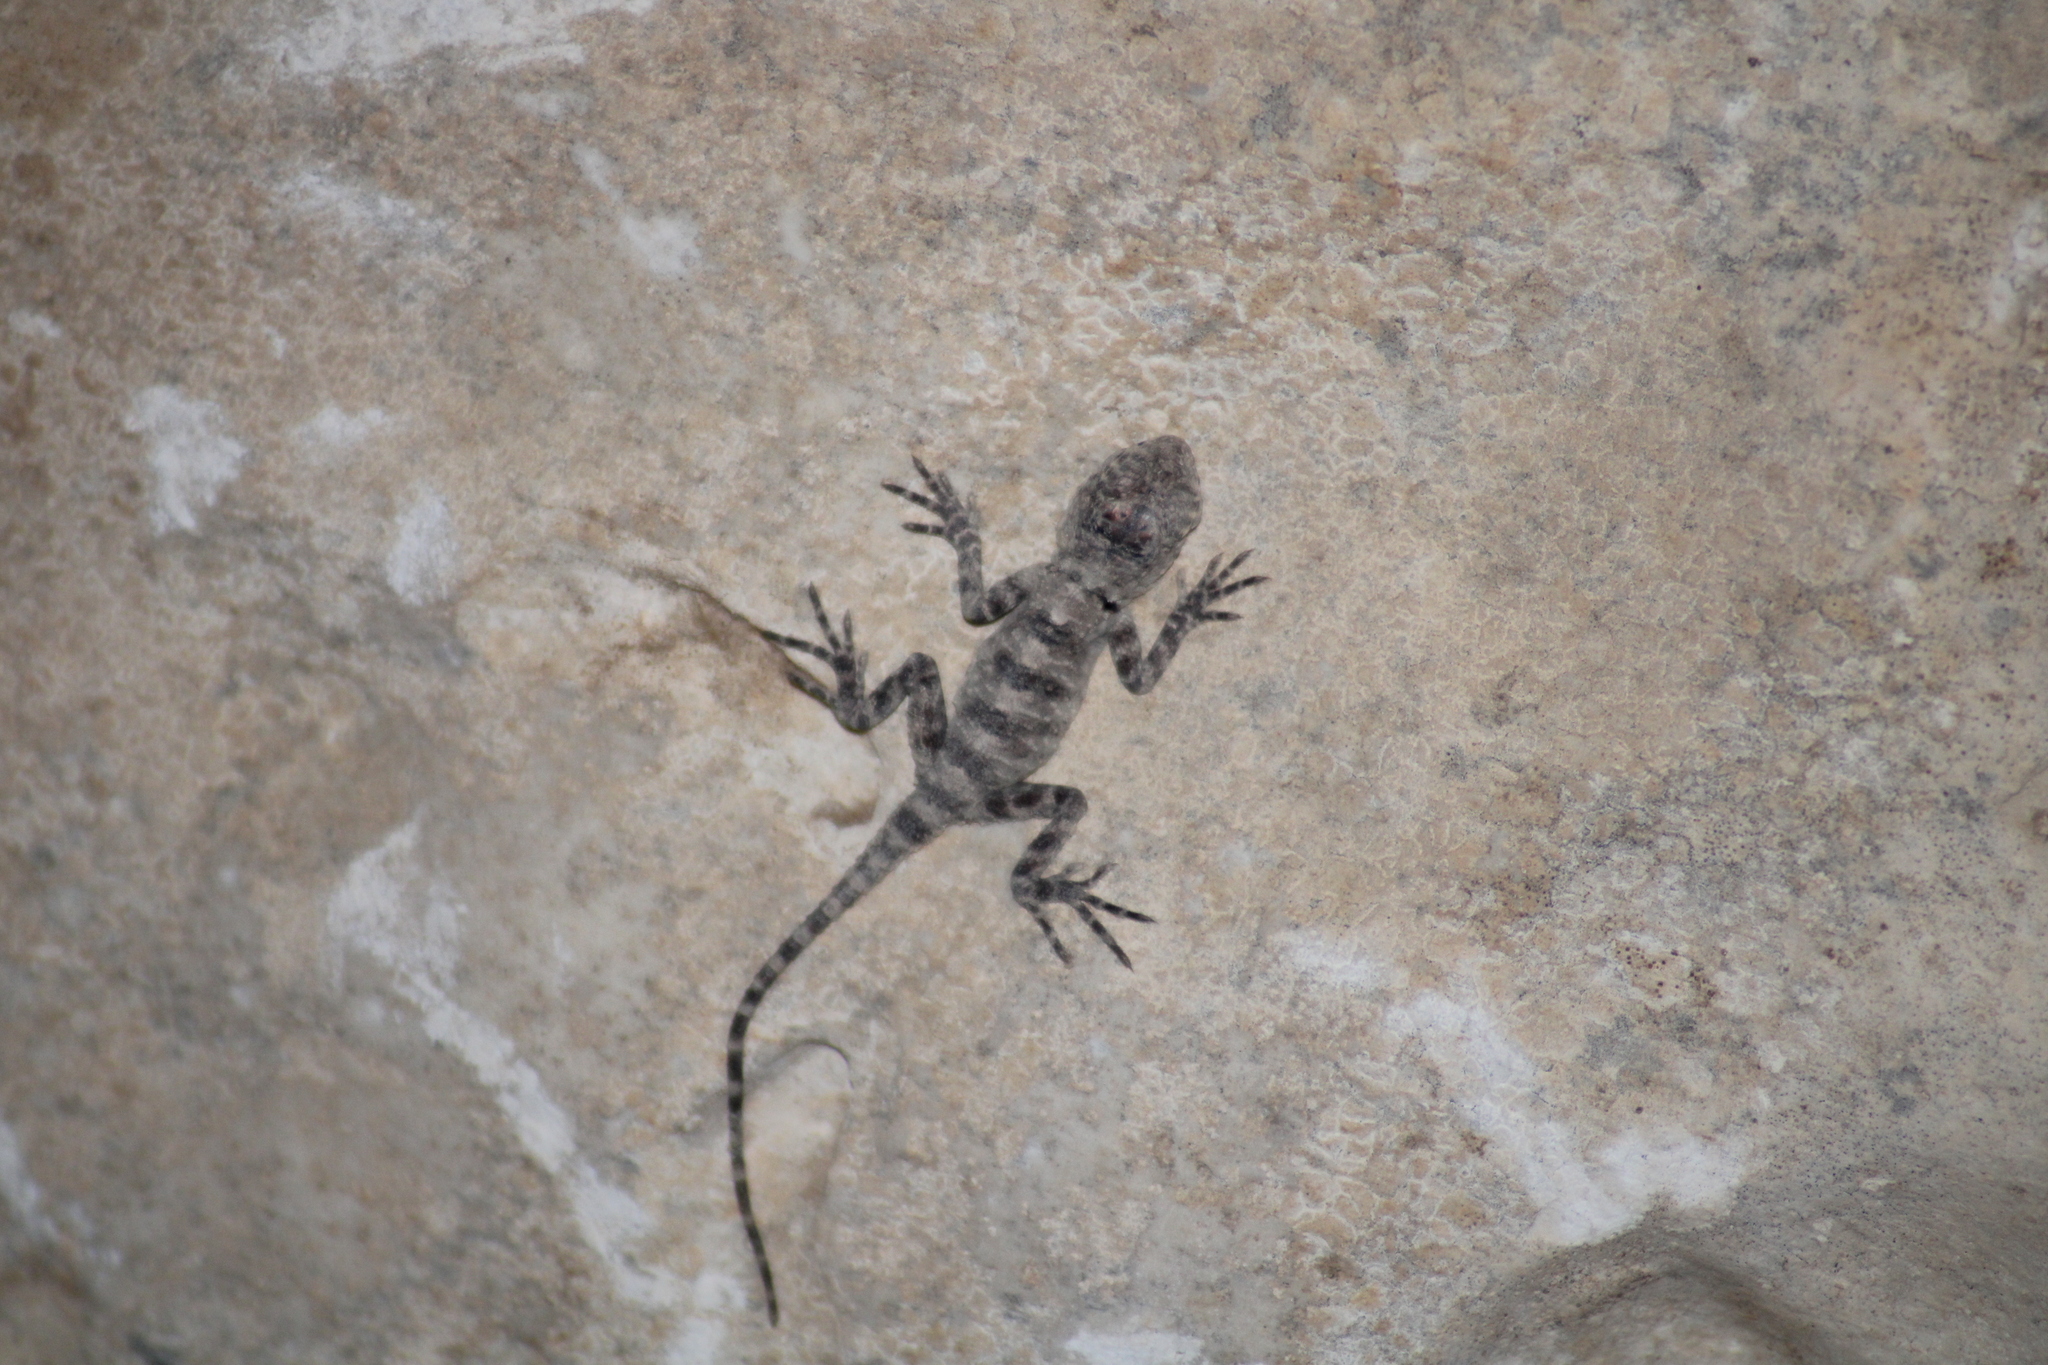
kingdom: Animalia
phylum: Chordata
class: Squamata
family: Agamidae
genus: Laudakia
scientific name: Laudakia
